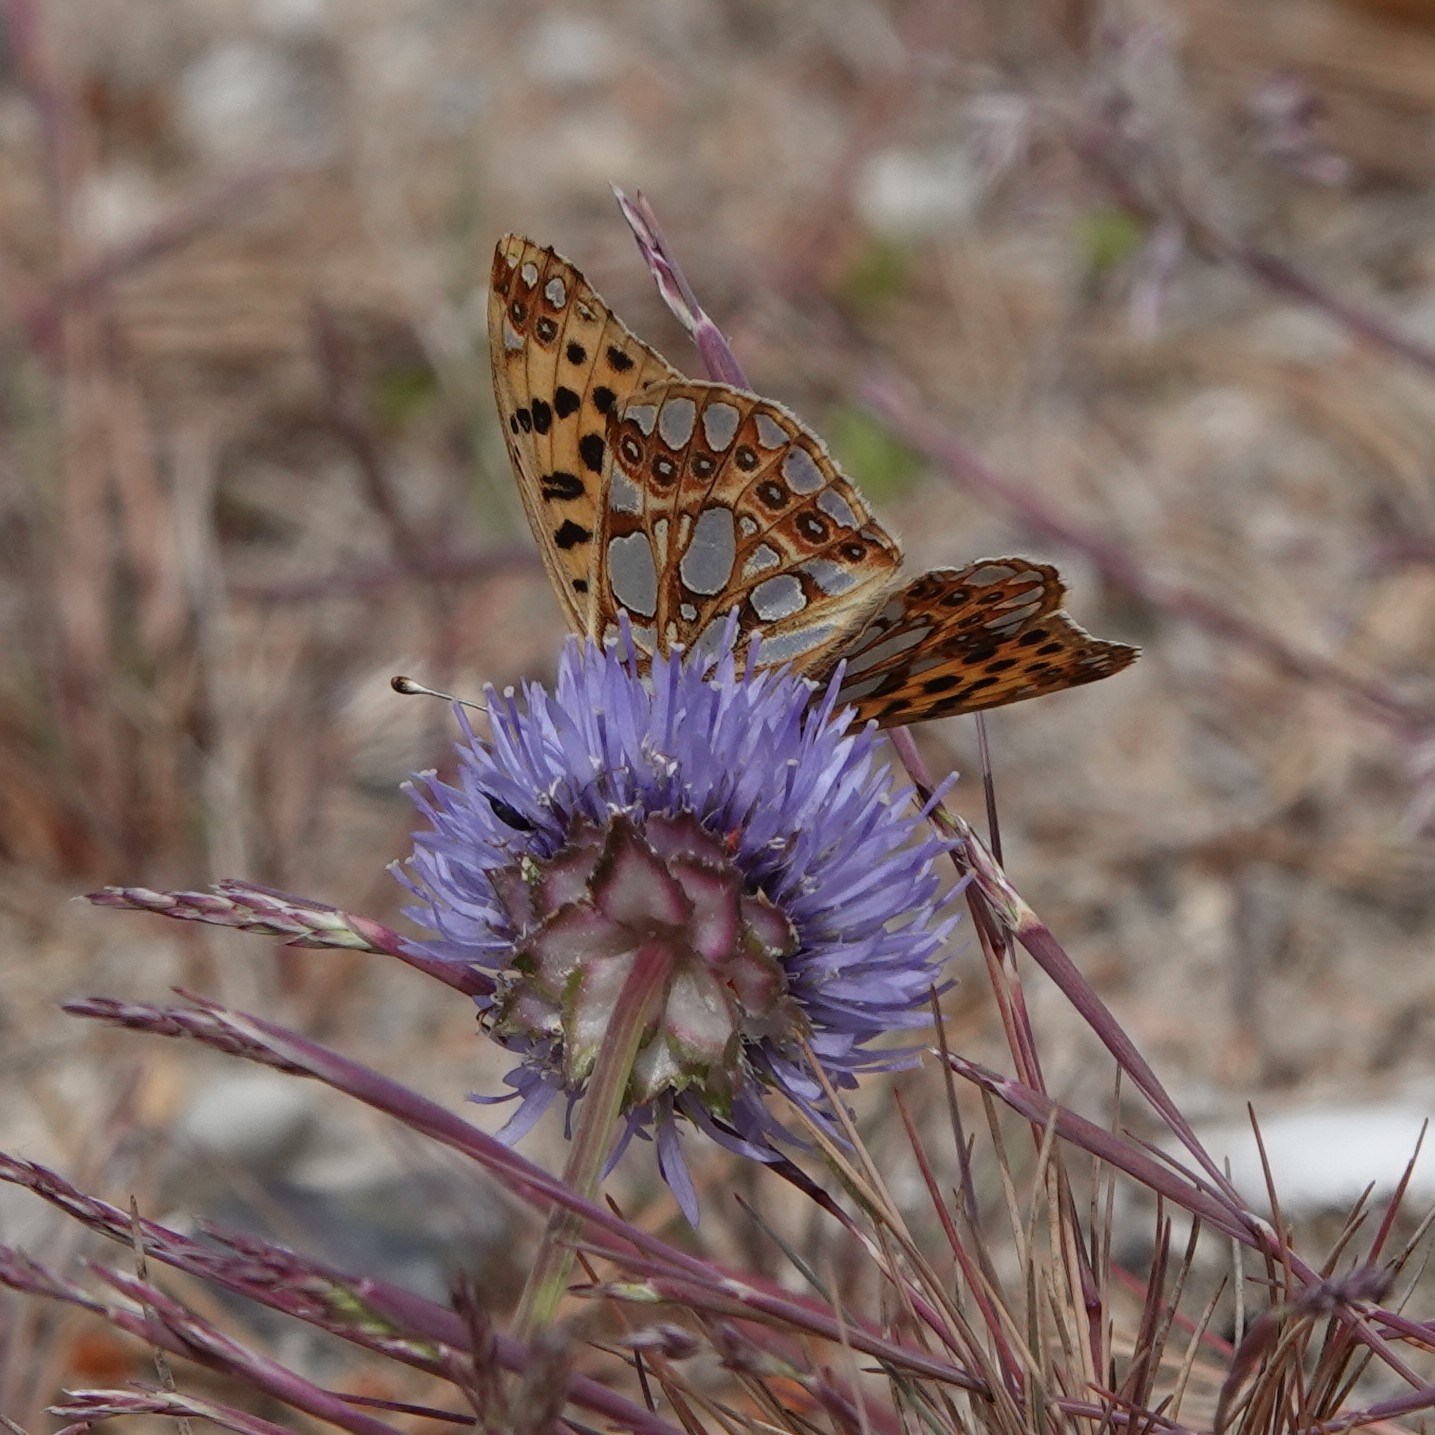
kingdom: Animalia
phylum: Arthropoda
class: Insecta
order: Lepidoptera
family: Nymphalidae
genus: Issoria
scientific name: Issoria lathonia
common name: Queen of spain fritillary
